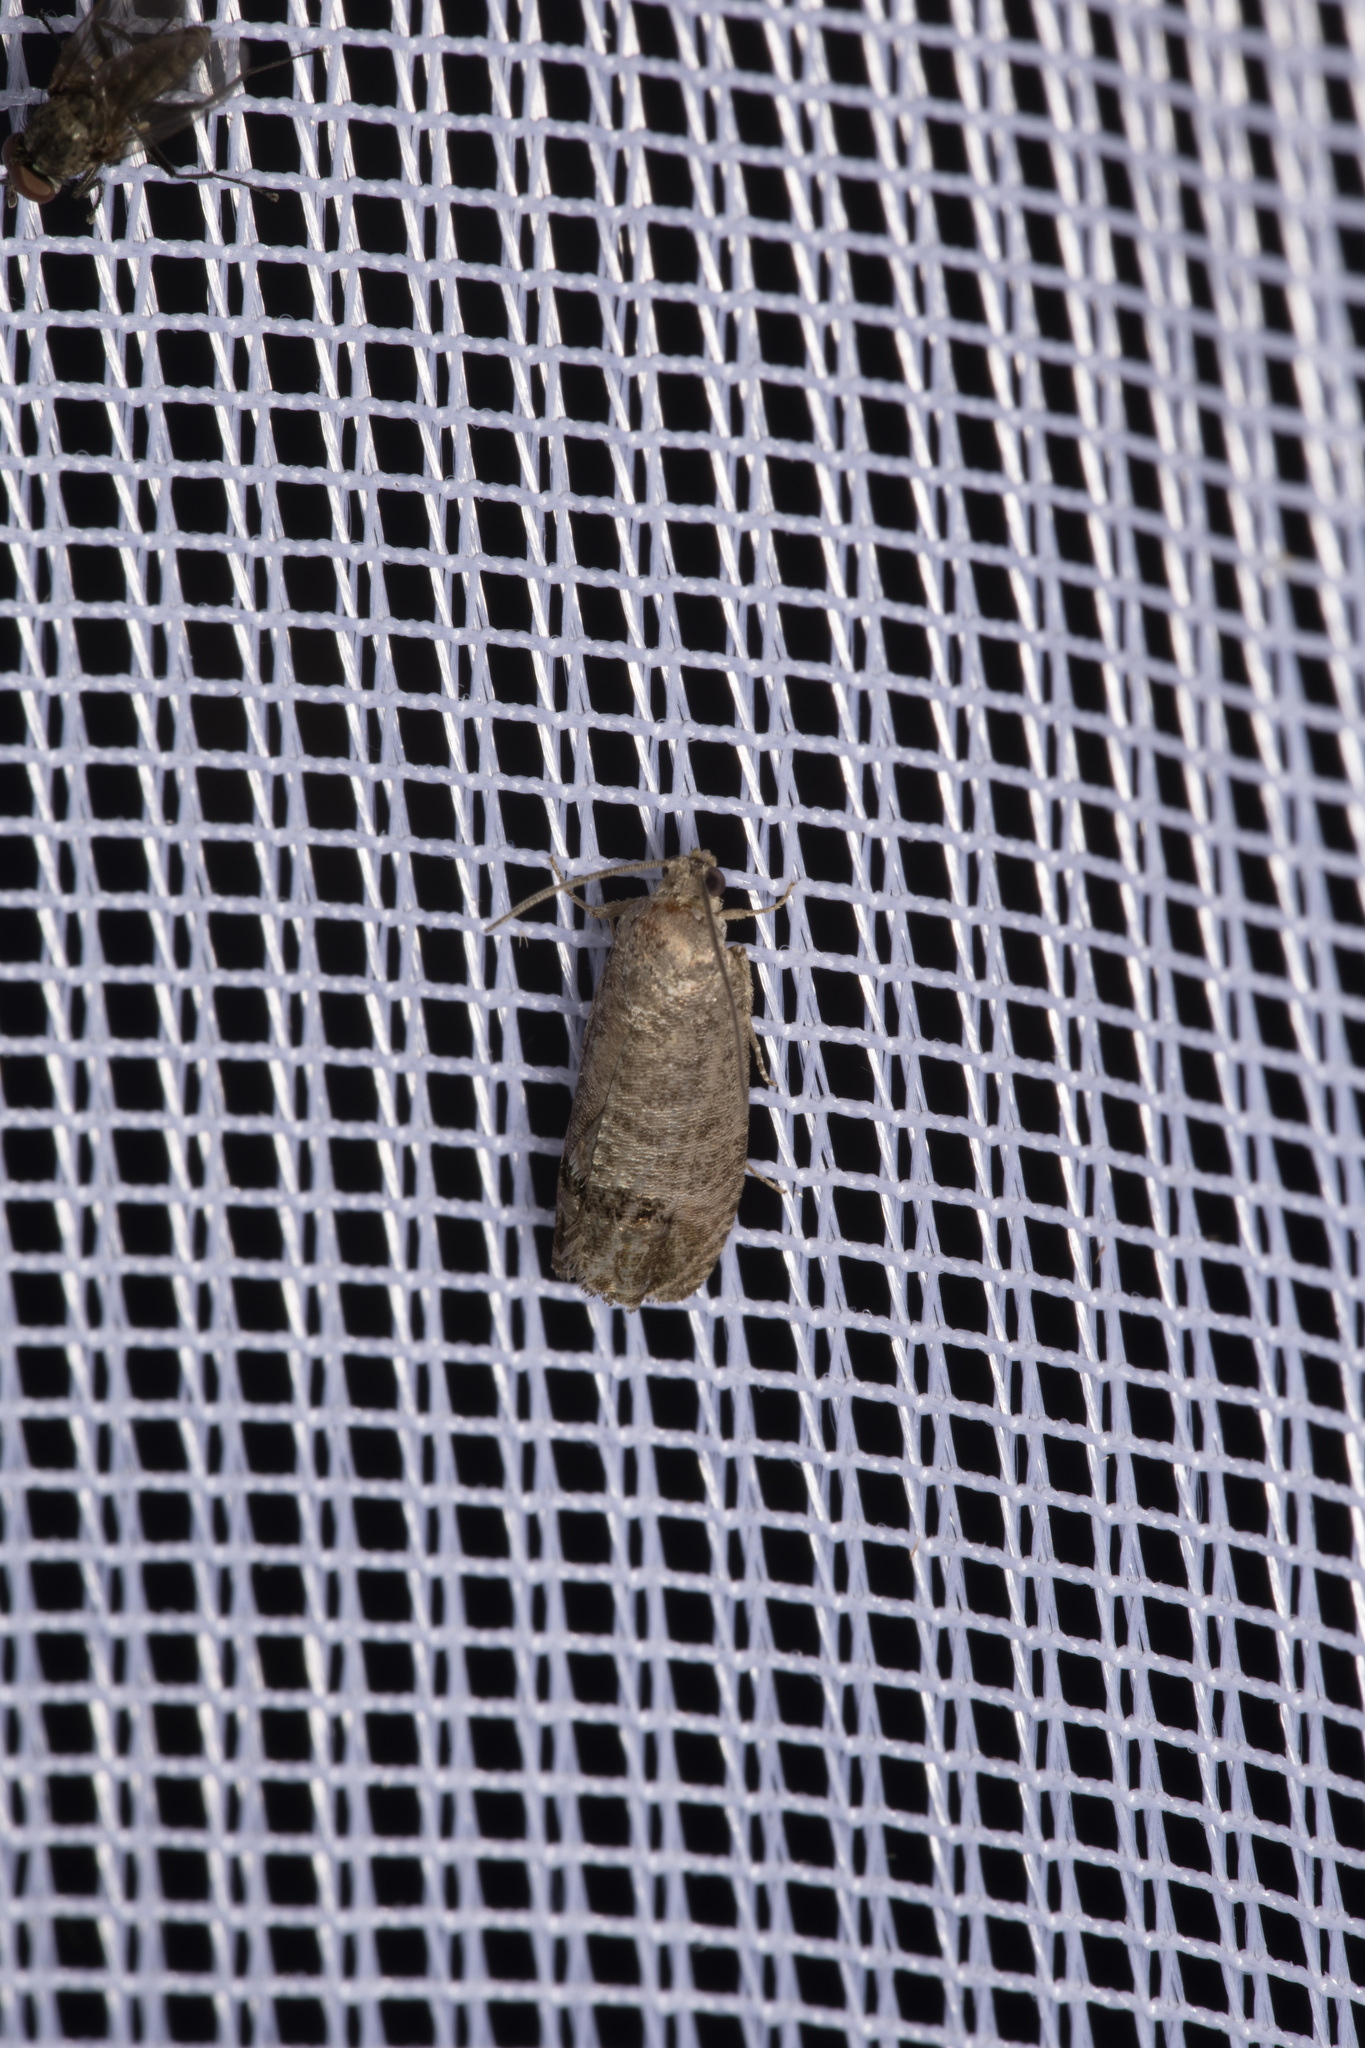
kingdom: Animalia
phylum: Arthropoda
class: Insecta
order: Lepidoptera
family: Tortricidae
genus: Cydia
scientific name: Cydia pomonella
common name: Codling moth
